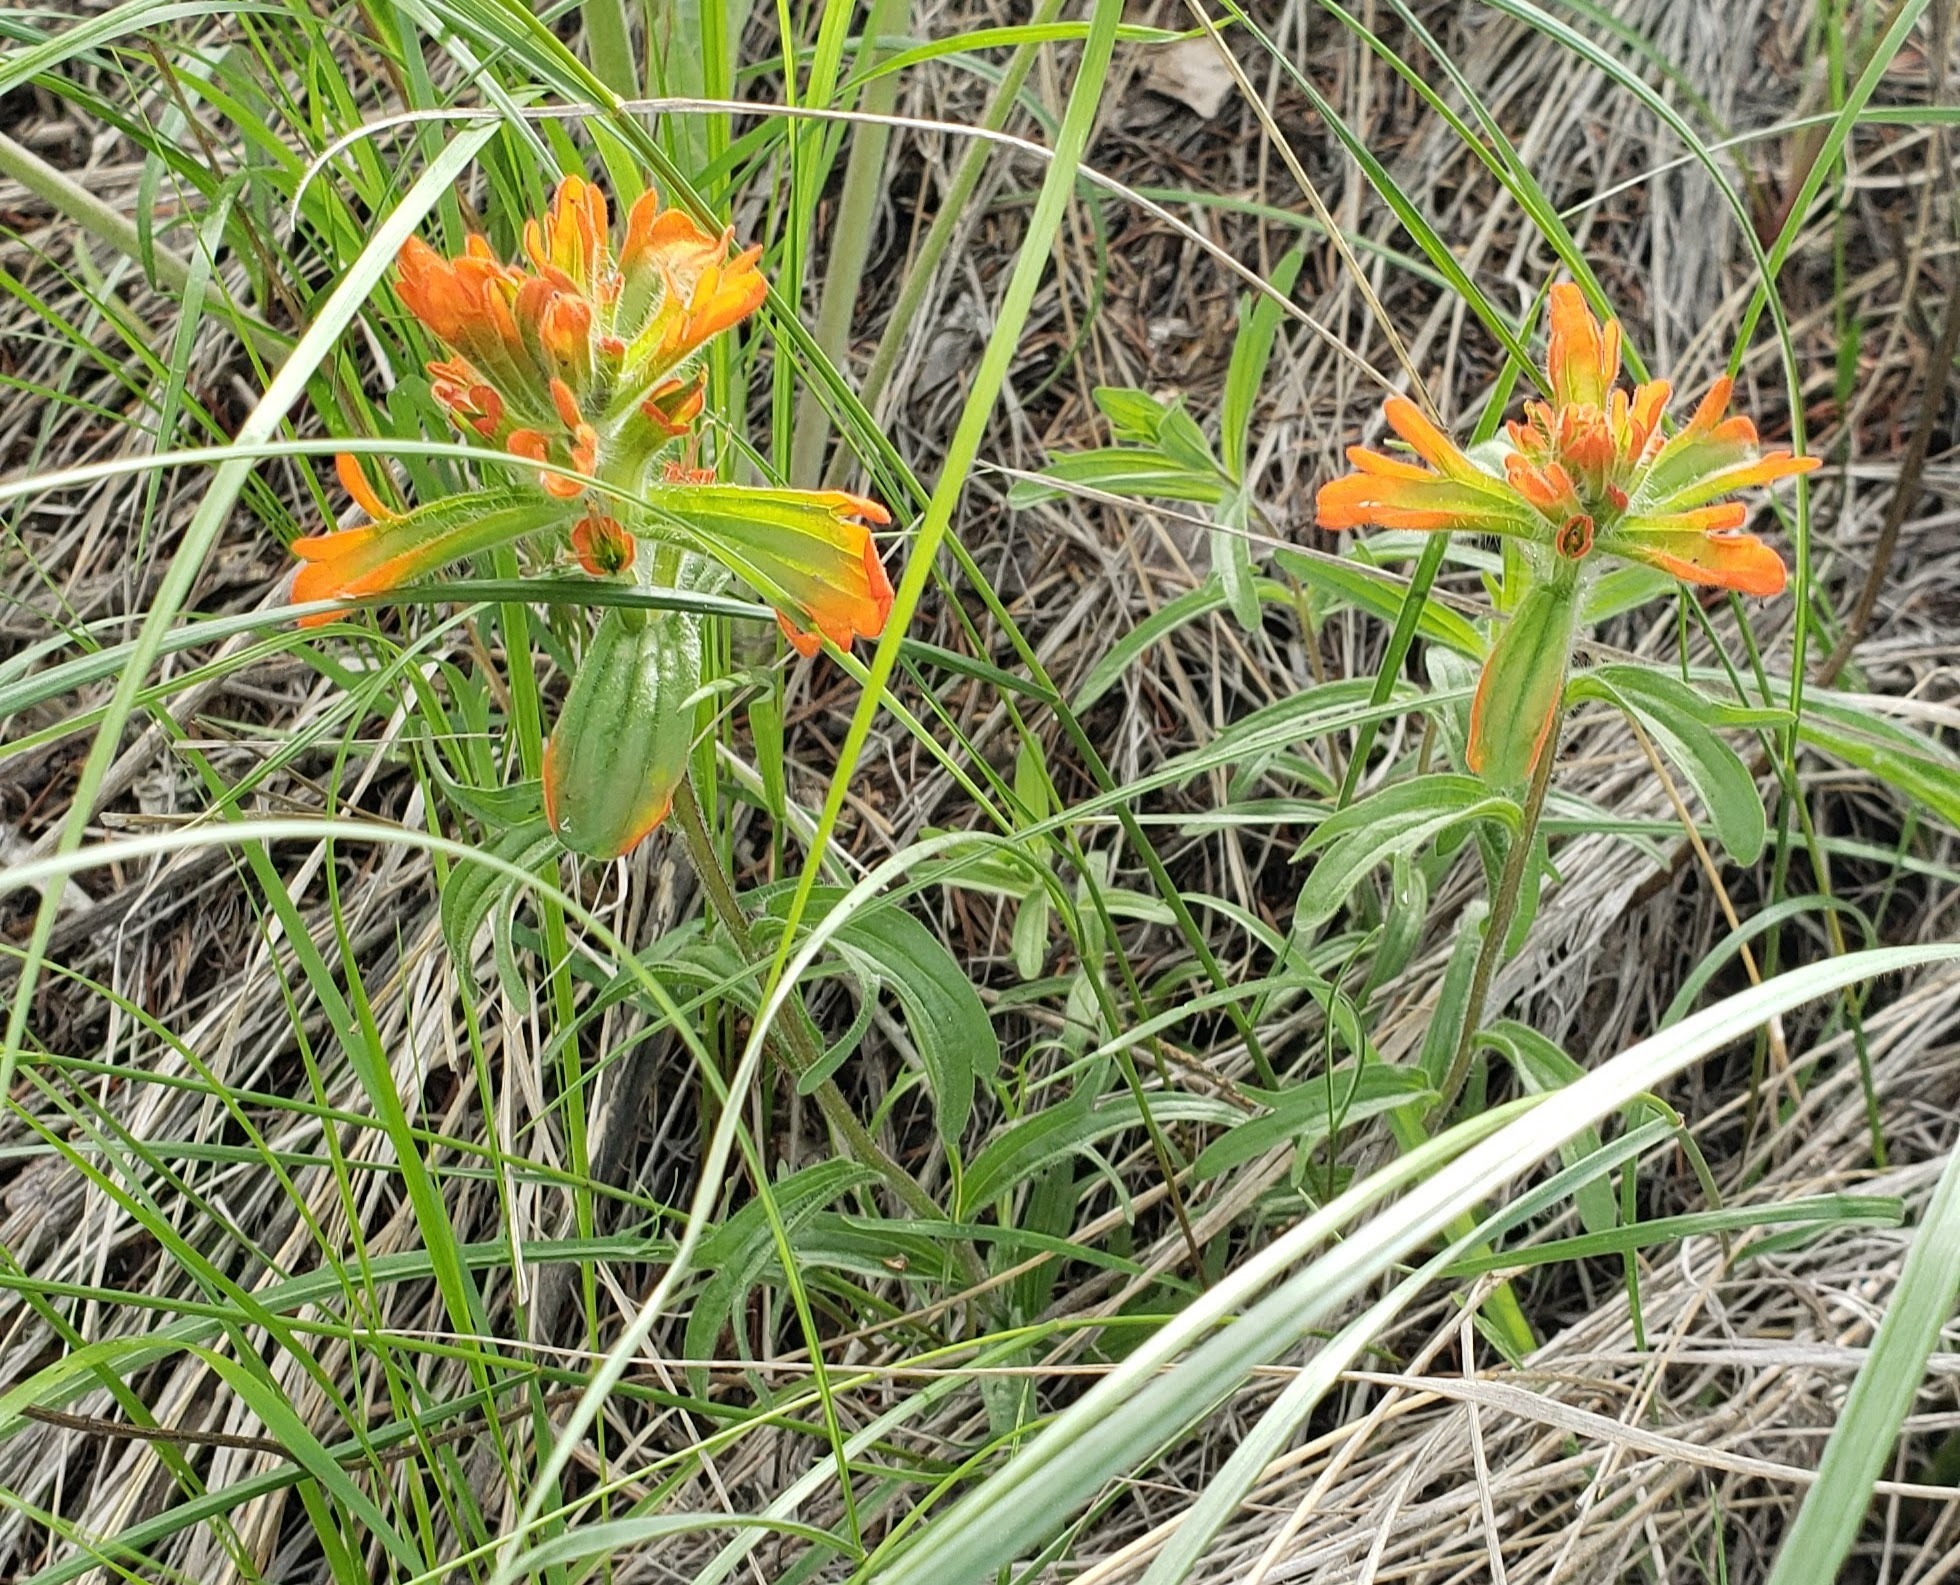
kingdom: Plantae
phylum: Tracheophyta
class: Magnoliopsida
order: Lamiales
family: Orobanchaceae
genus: Castilleja
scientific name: Castilleja hispida
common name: Bristly paintbrush
